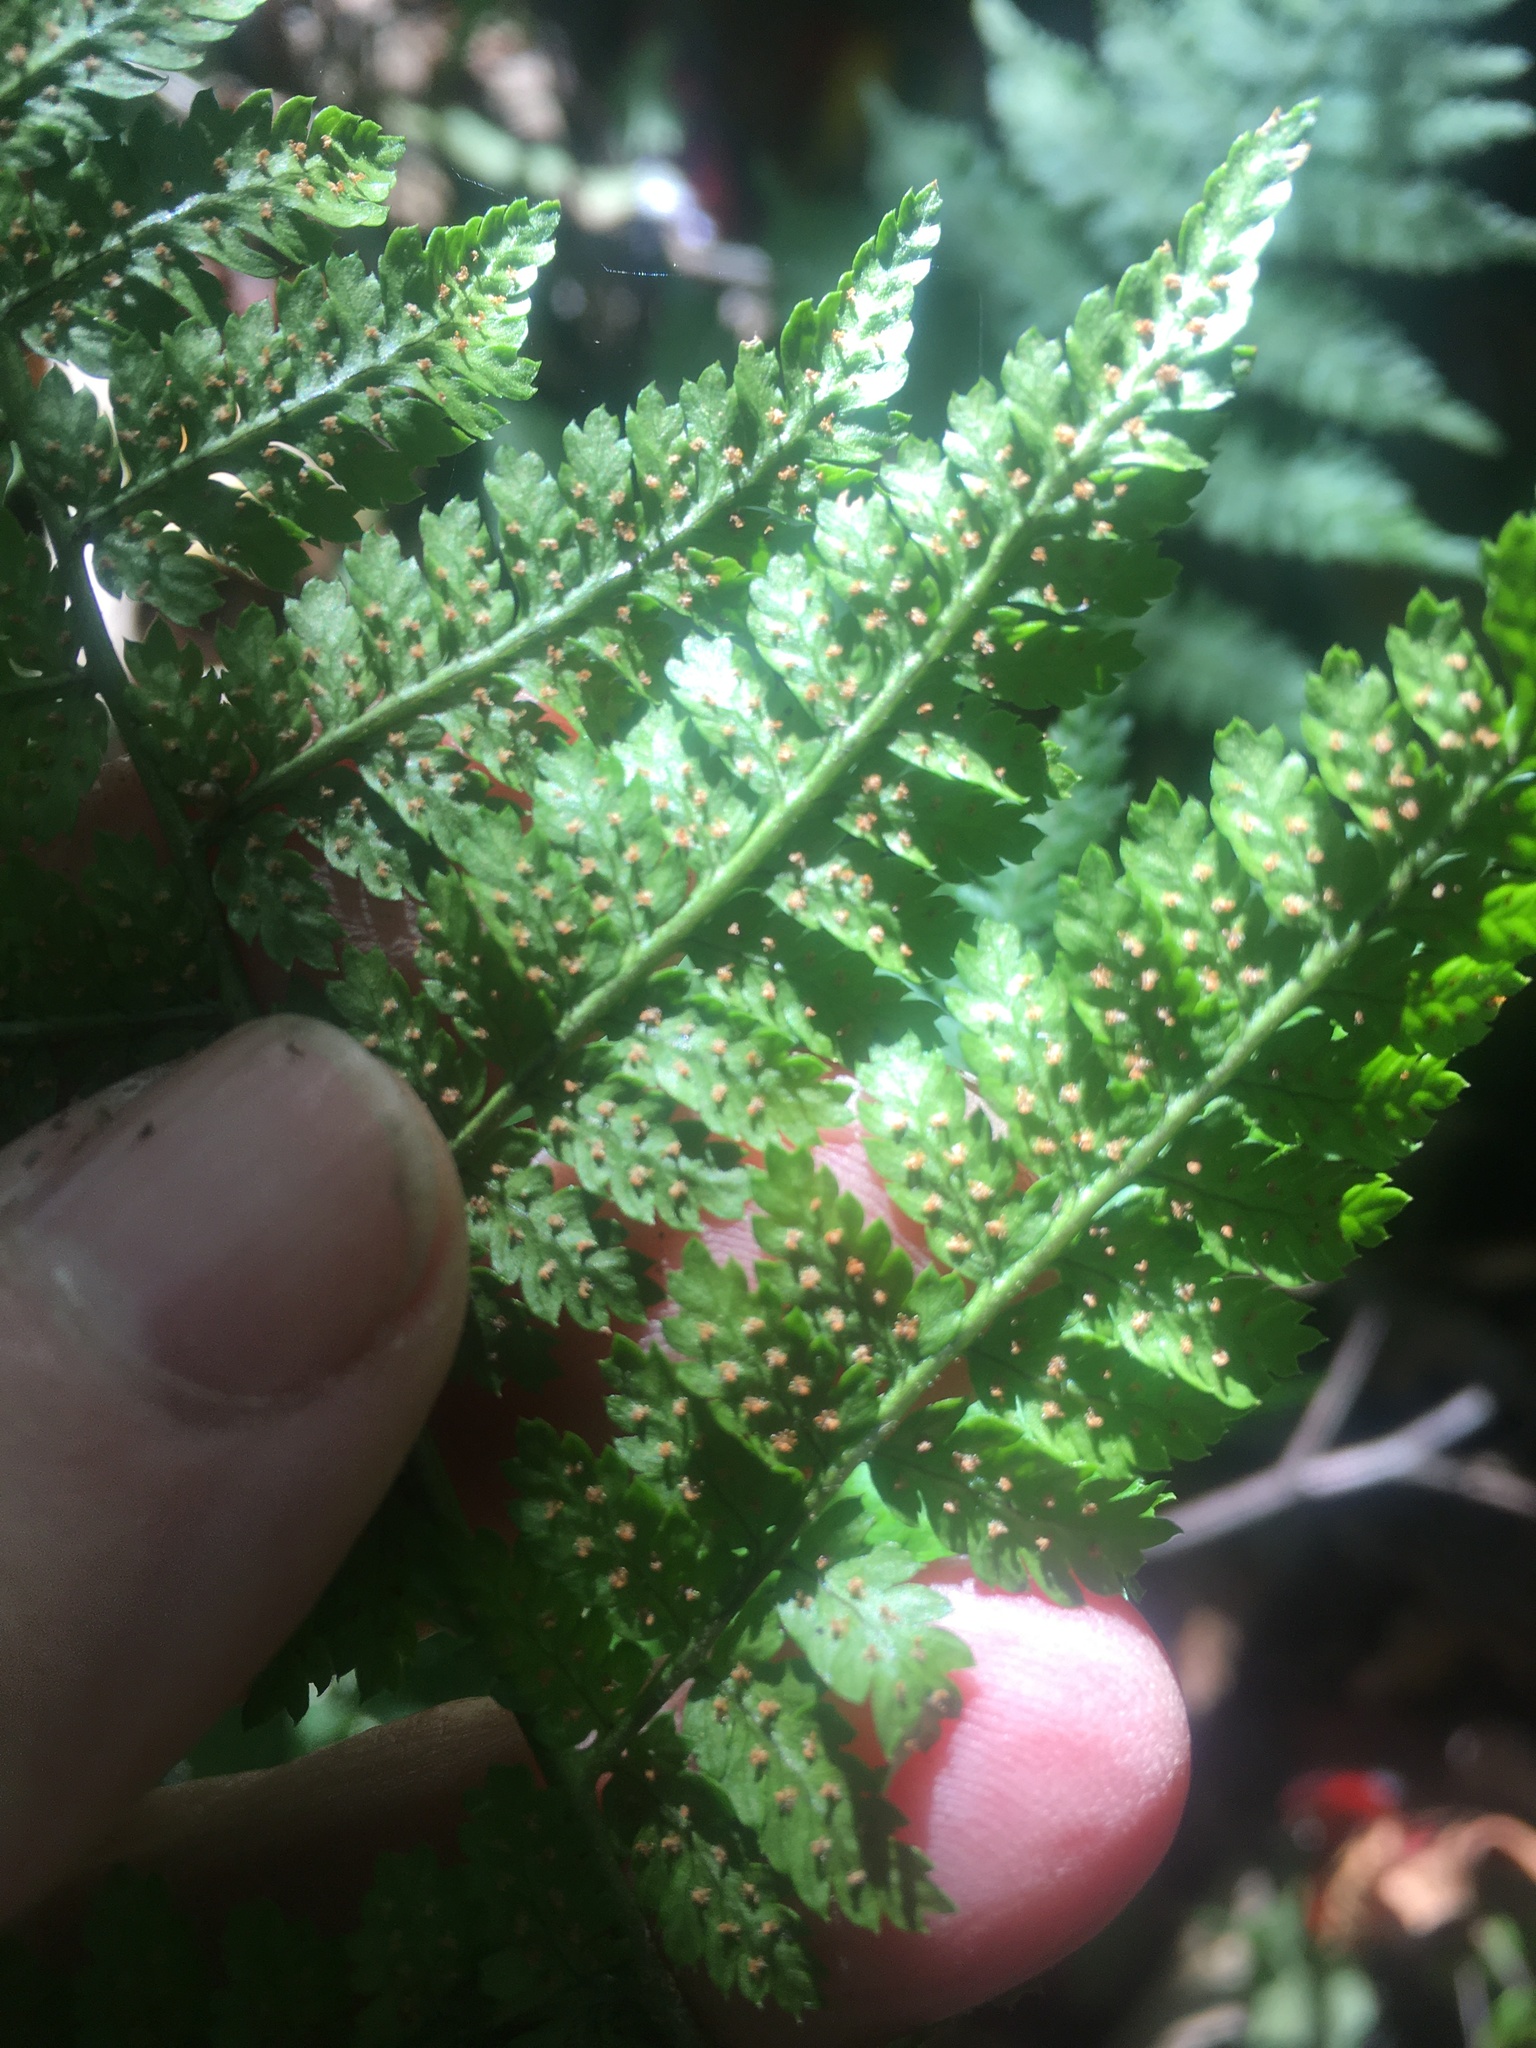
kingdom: Plantae
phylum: Tracheophyta
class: Polypodiopsida
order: Polypodiales
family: Dryopteridaceae
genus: Dryopteris
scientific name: Dryopteris intermedia
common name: Evergreen wood fern
